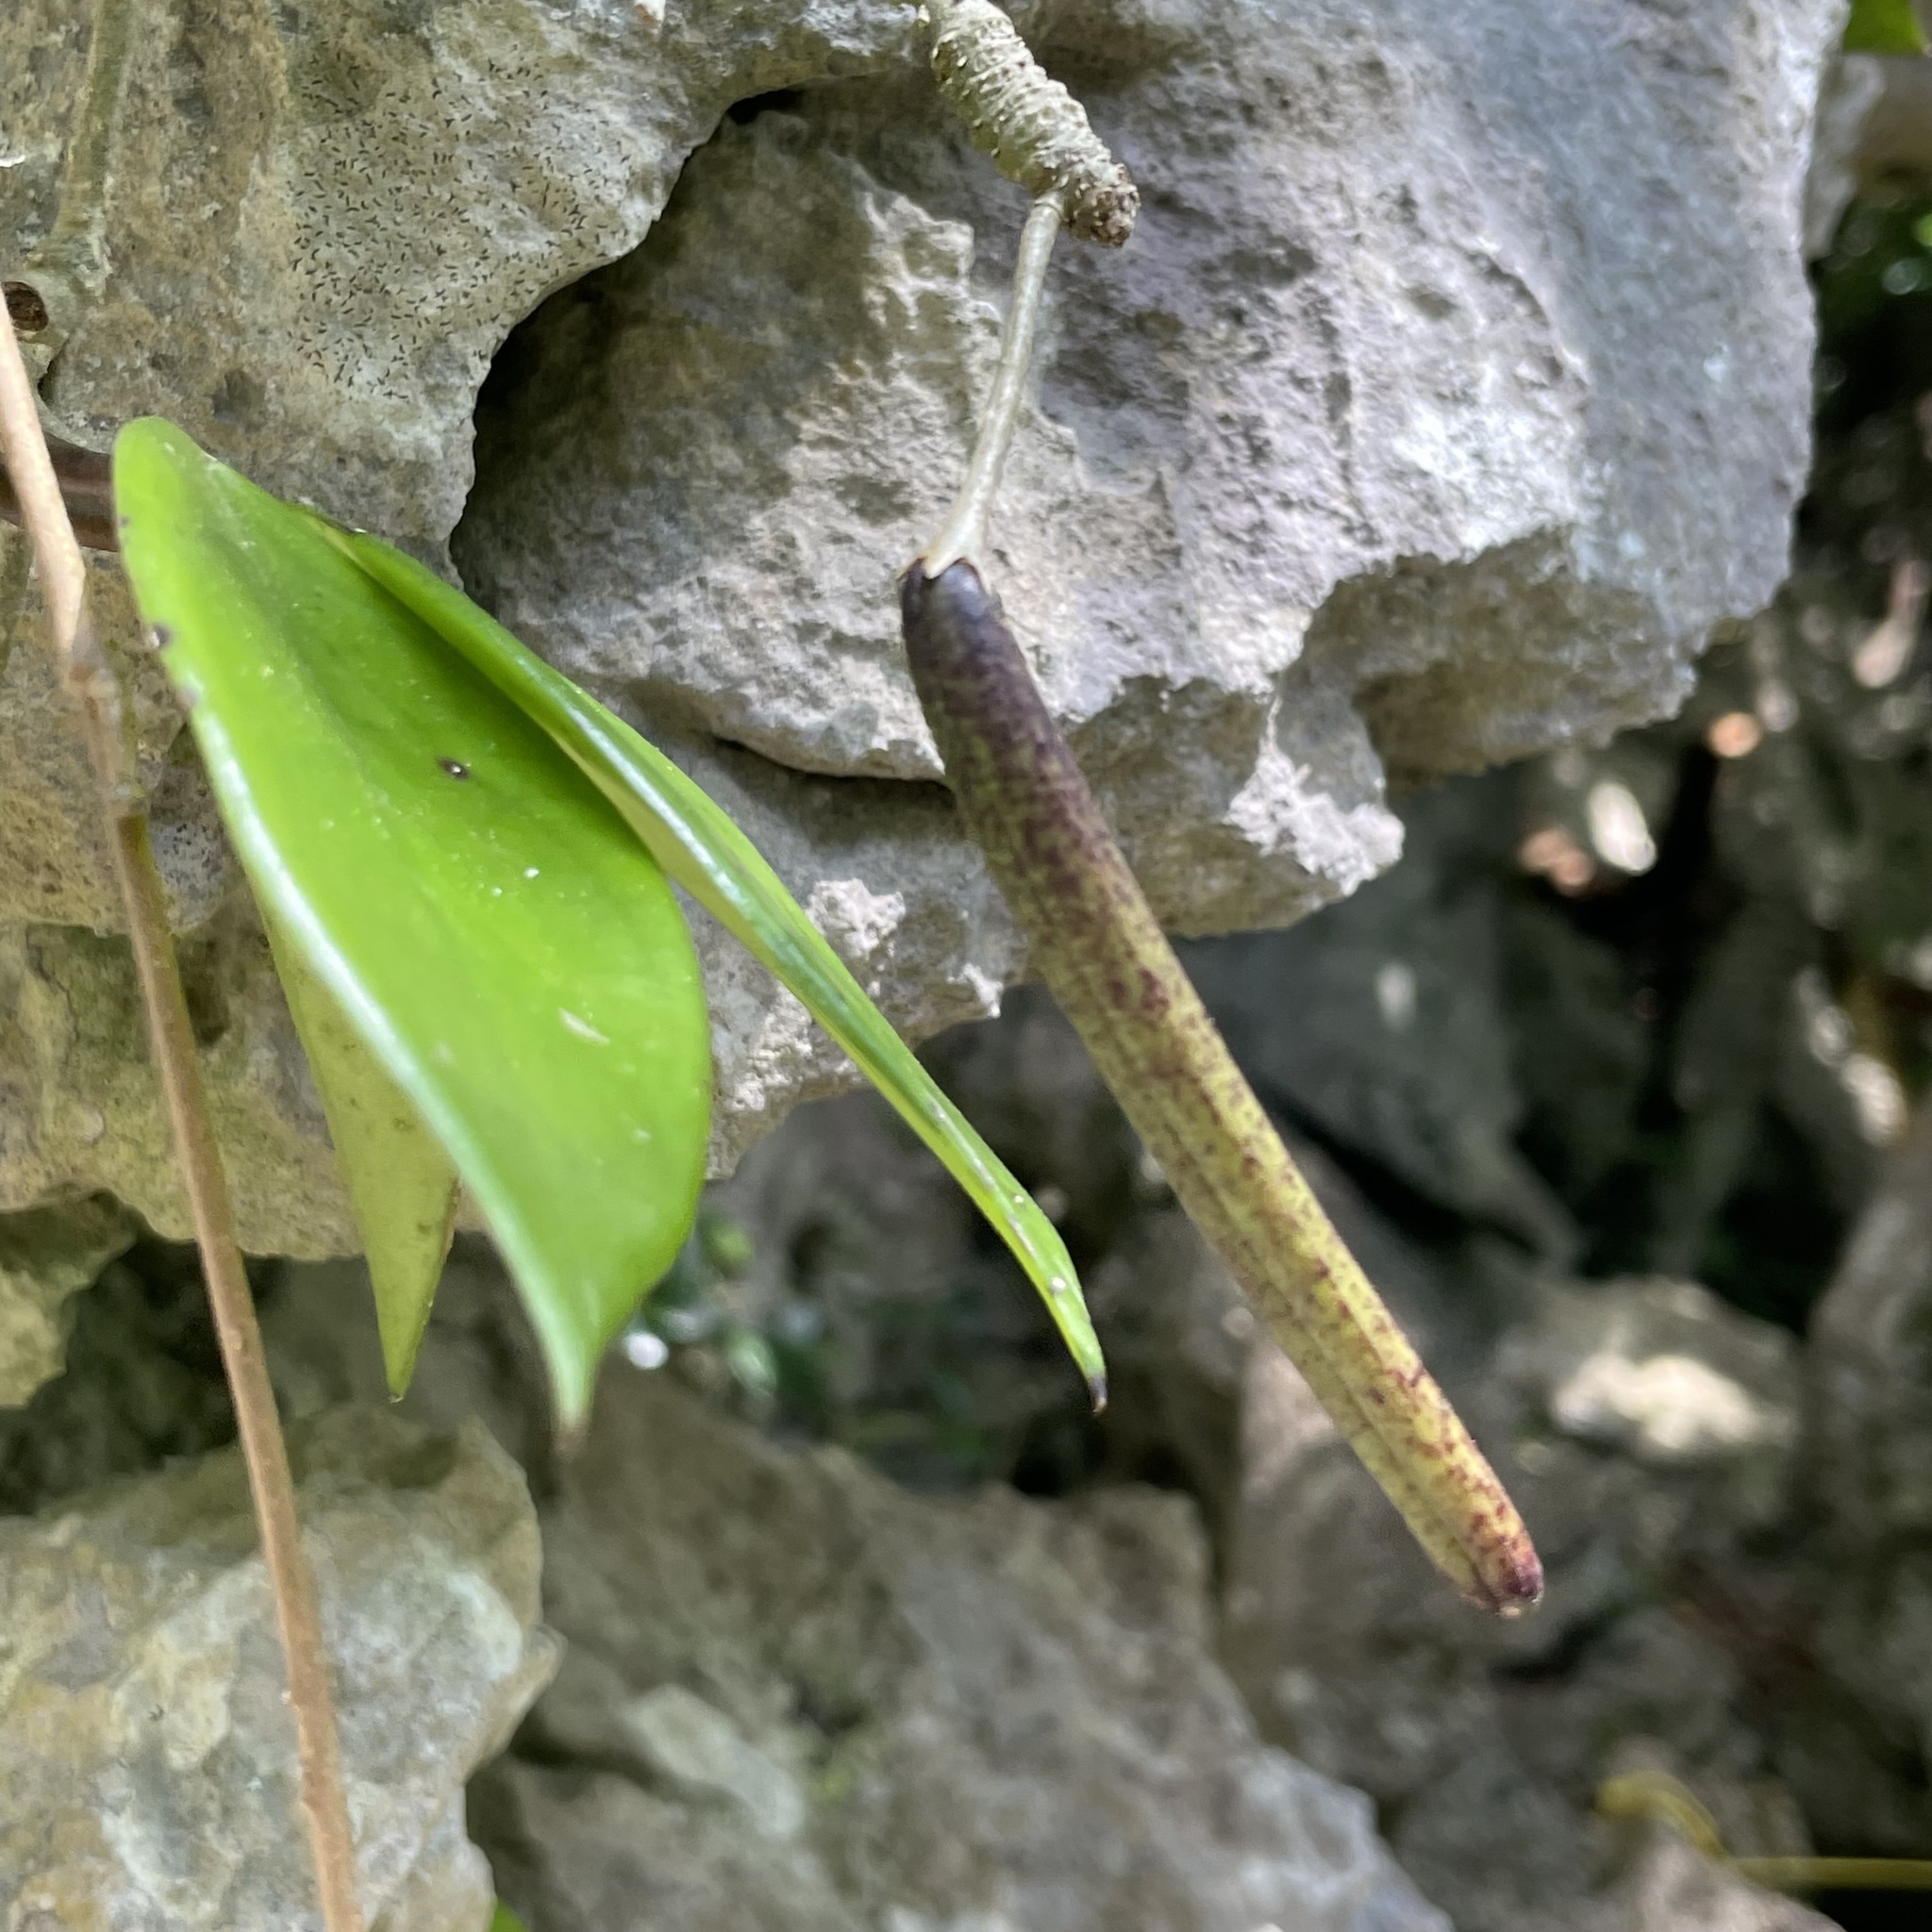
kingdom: Plantae
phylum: Tracheophyta
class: Magnoliopsida
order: Gentianales
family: Apocynaceae
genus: Hoya
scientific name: Hoya carnosa
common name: Honeyplant
